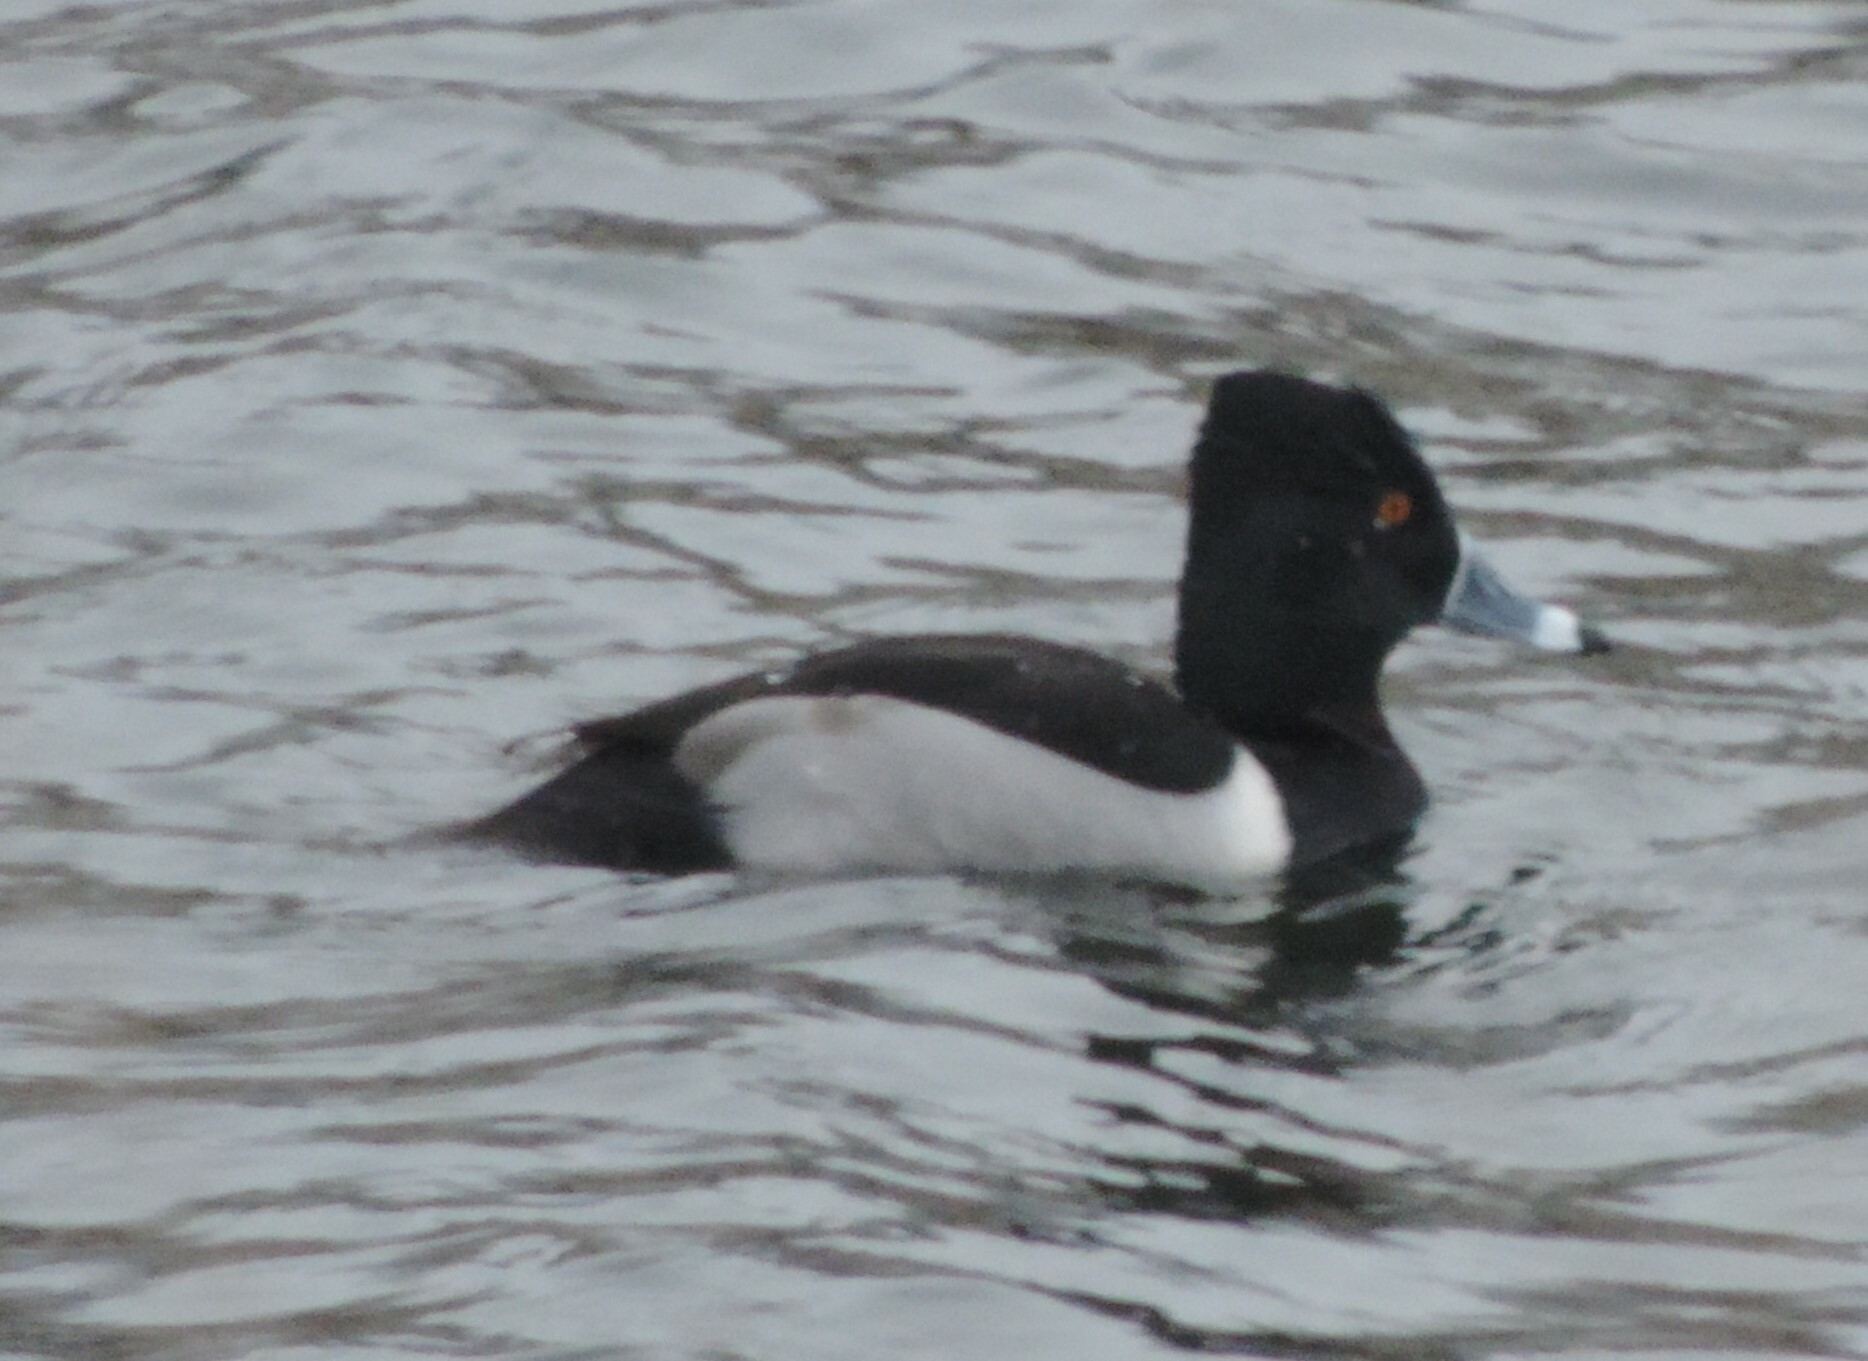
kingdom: Animalia
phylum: Chordata
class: Aves
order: Anseriformes
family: Anatidae
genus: Aythya
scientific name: Aythya collaris
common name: Ring-necked duck
